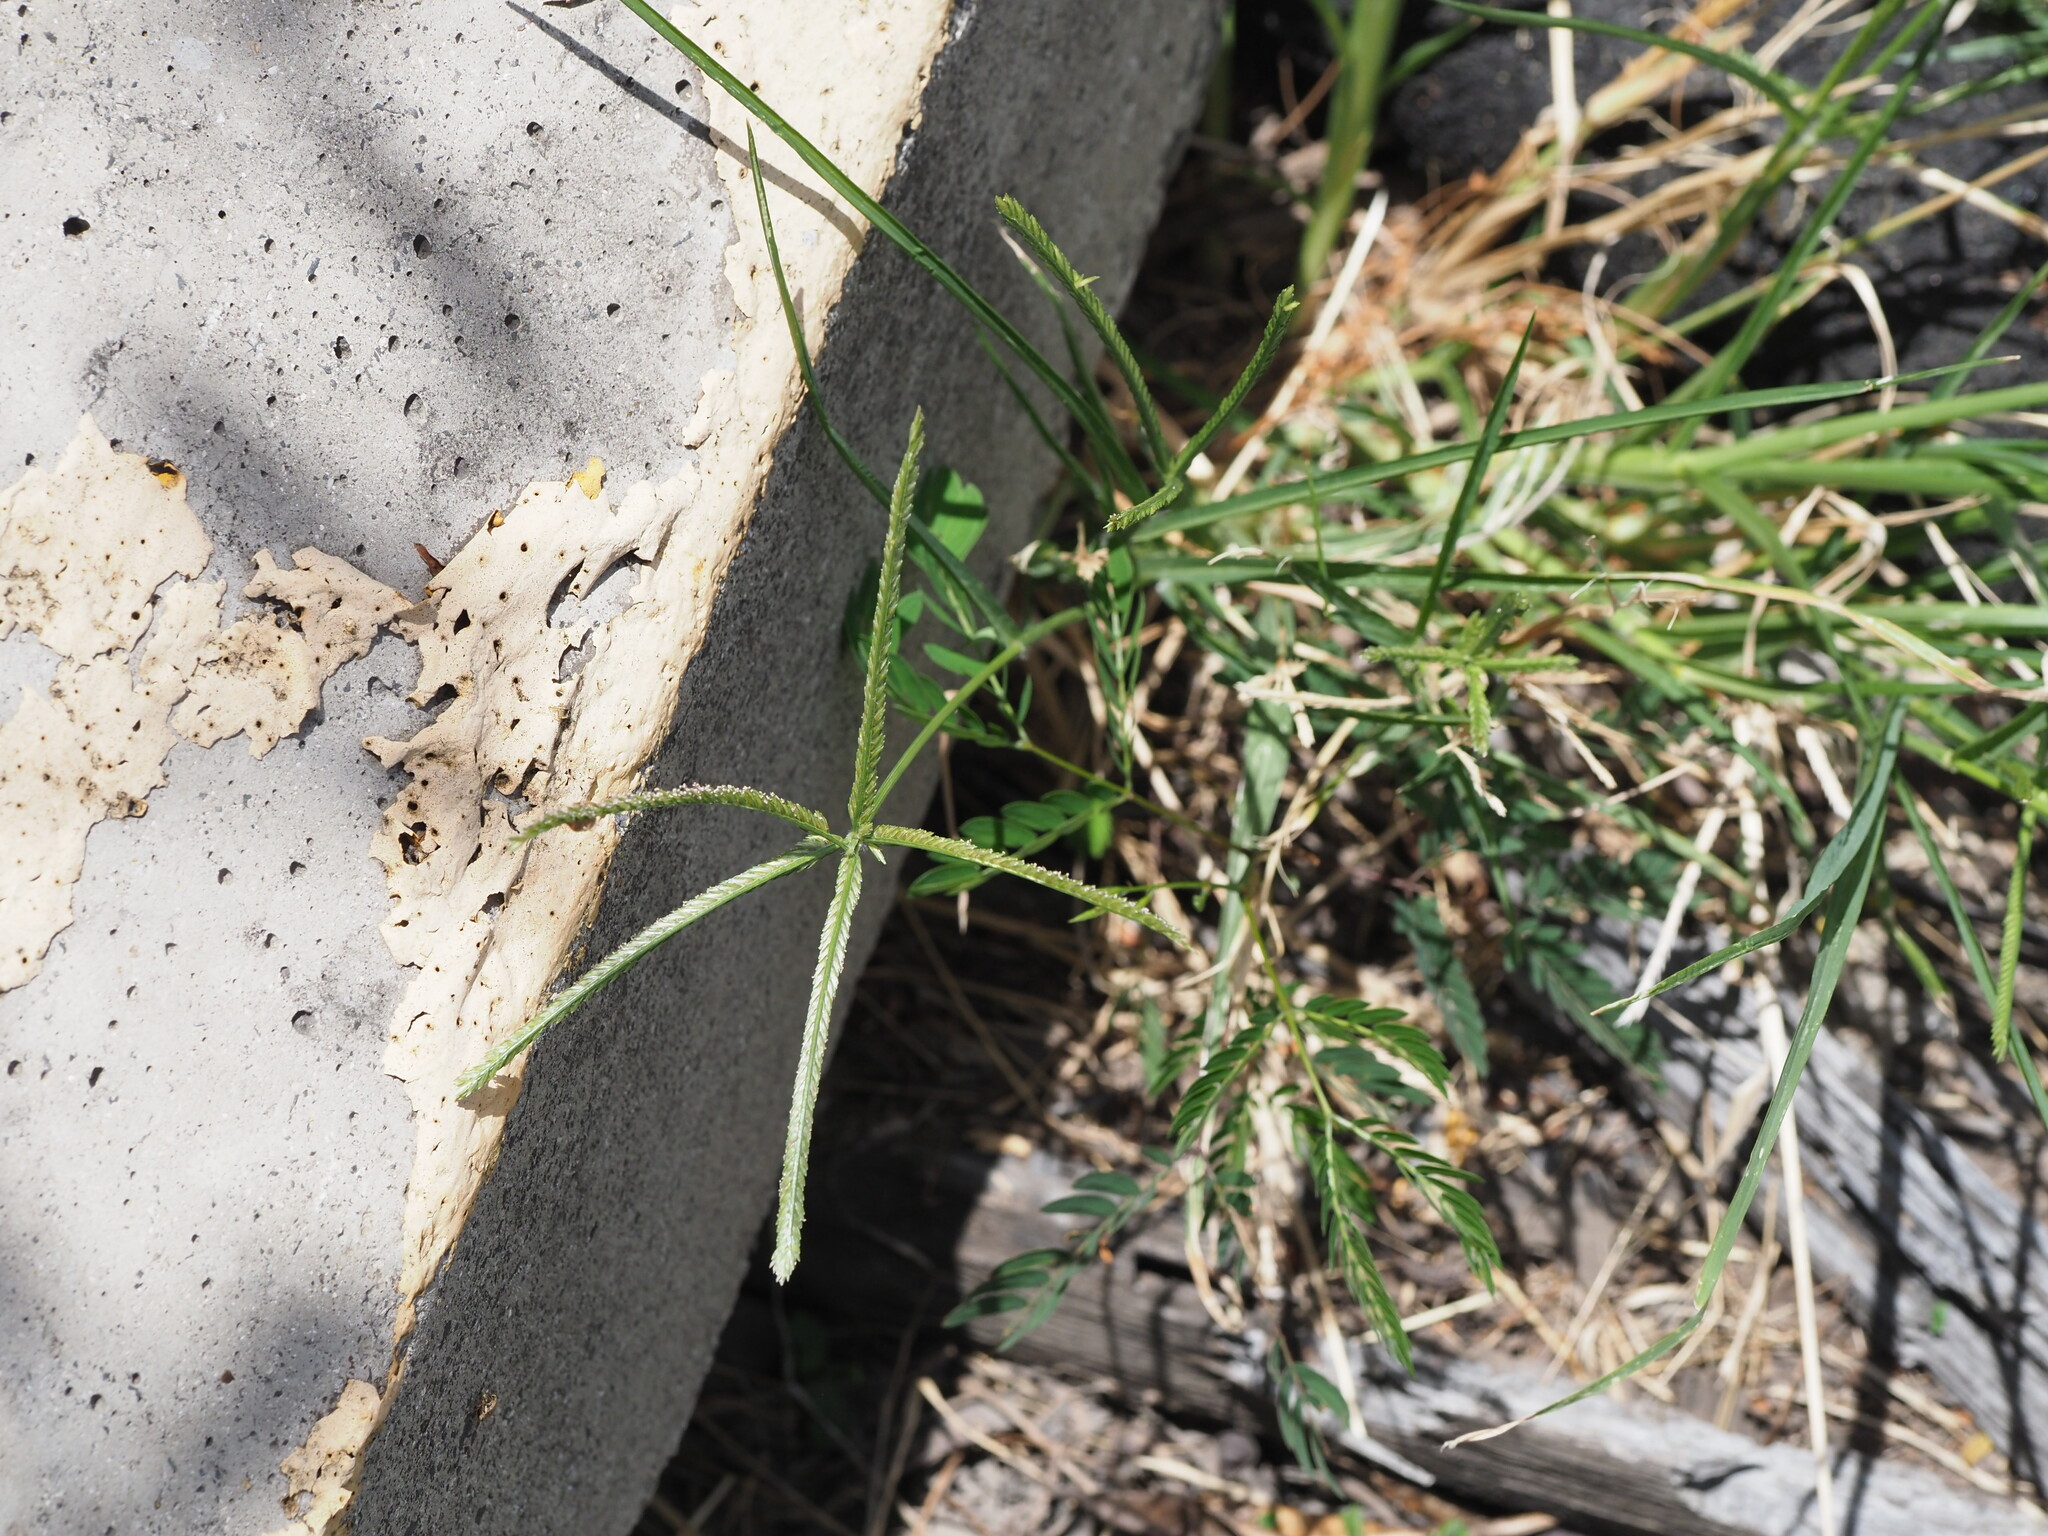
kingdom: Plantae
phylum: Tracheophyta
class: Liliopsida
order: Poales
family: Poaceae
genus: Eleusine
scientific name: Eleusine indica
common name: Yard-grass
